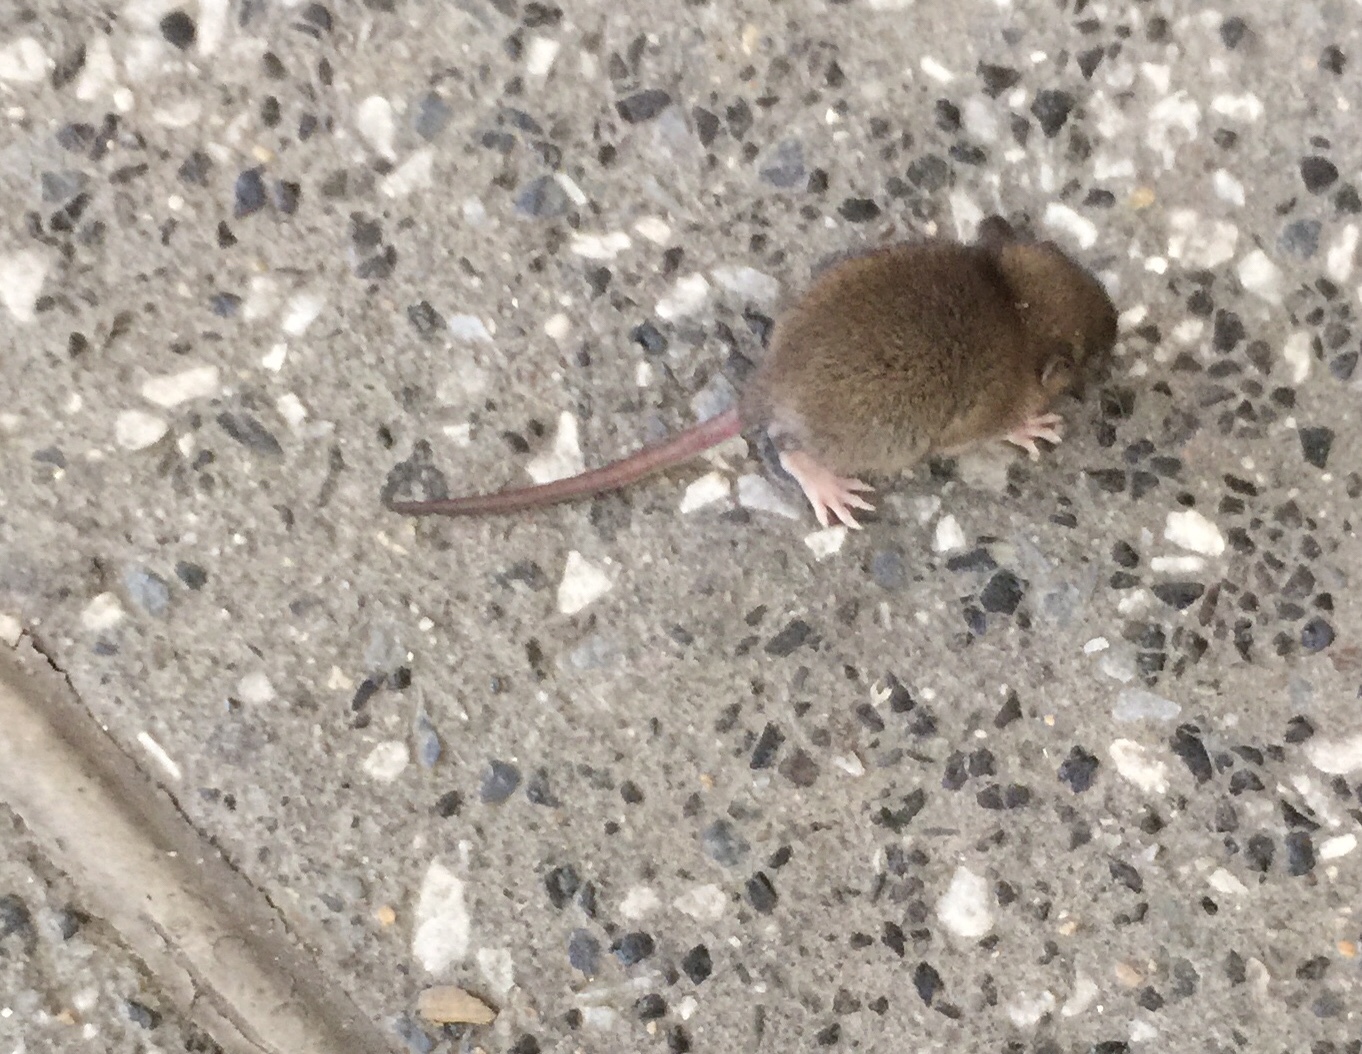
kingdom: Animalia
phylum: Chordata
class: Mammalia
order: Rodentia
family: Muridae
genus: Rattus
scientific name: Rattus norvegicus
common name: Brown rat
